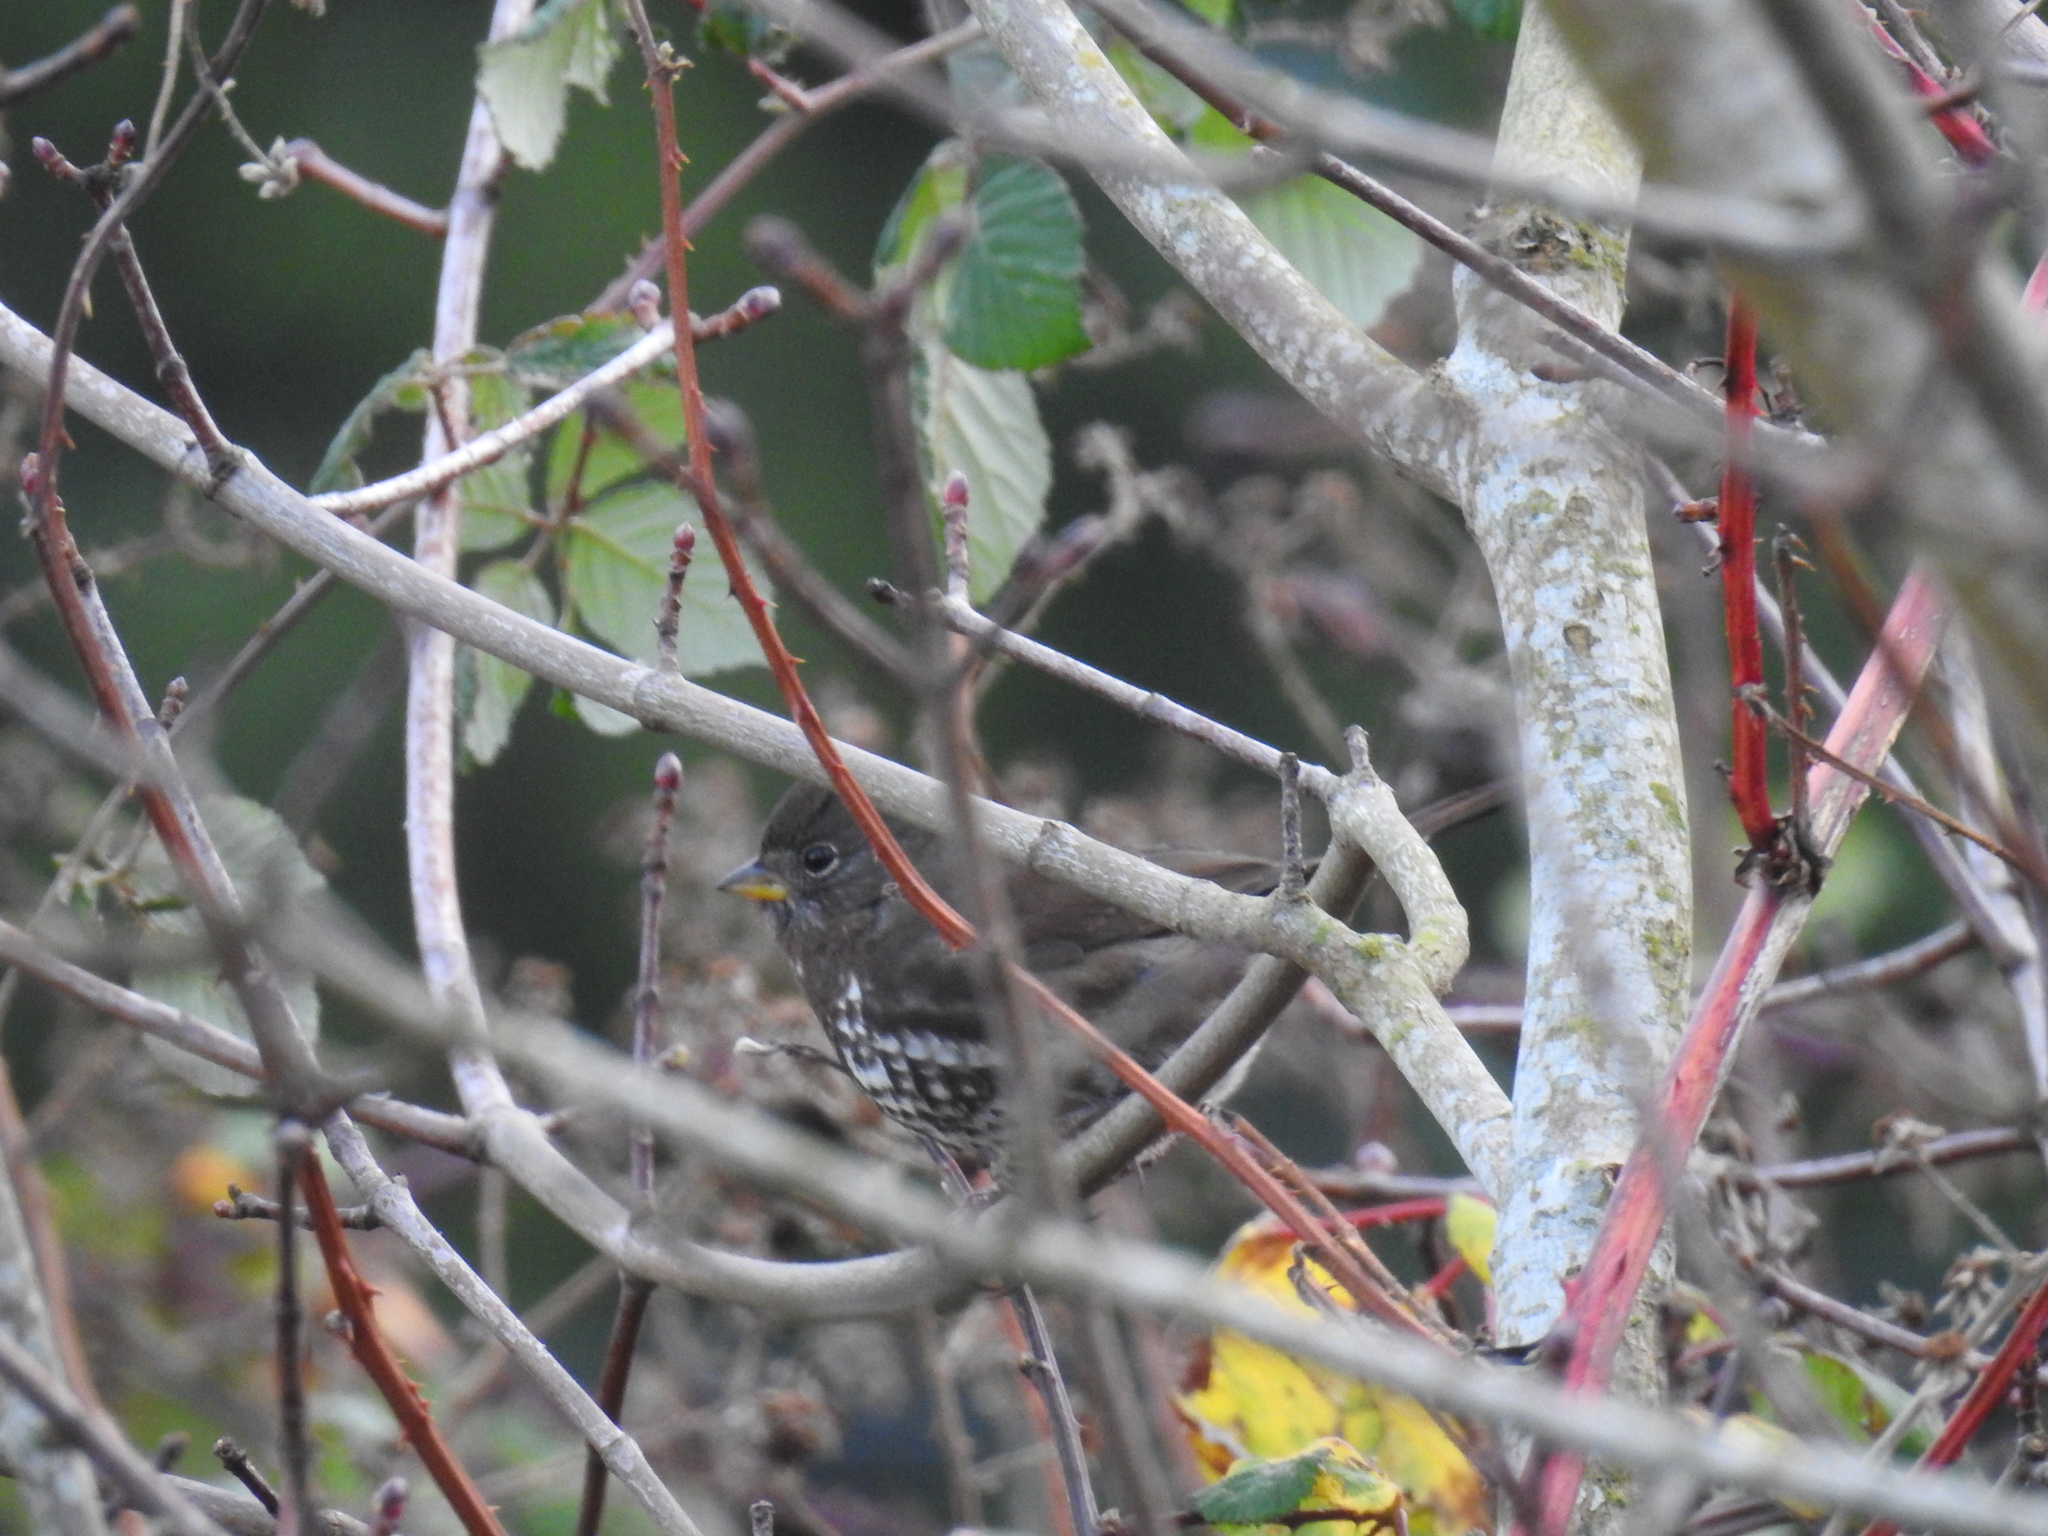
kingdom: Animalia
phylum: Chordata
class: Aves
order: Passeriformes
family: Passerellidae
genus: Passerella
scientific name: Passerella iliaca
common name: Fox sparrow
